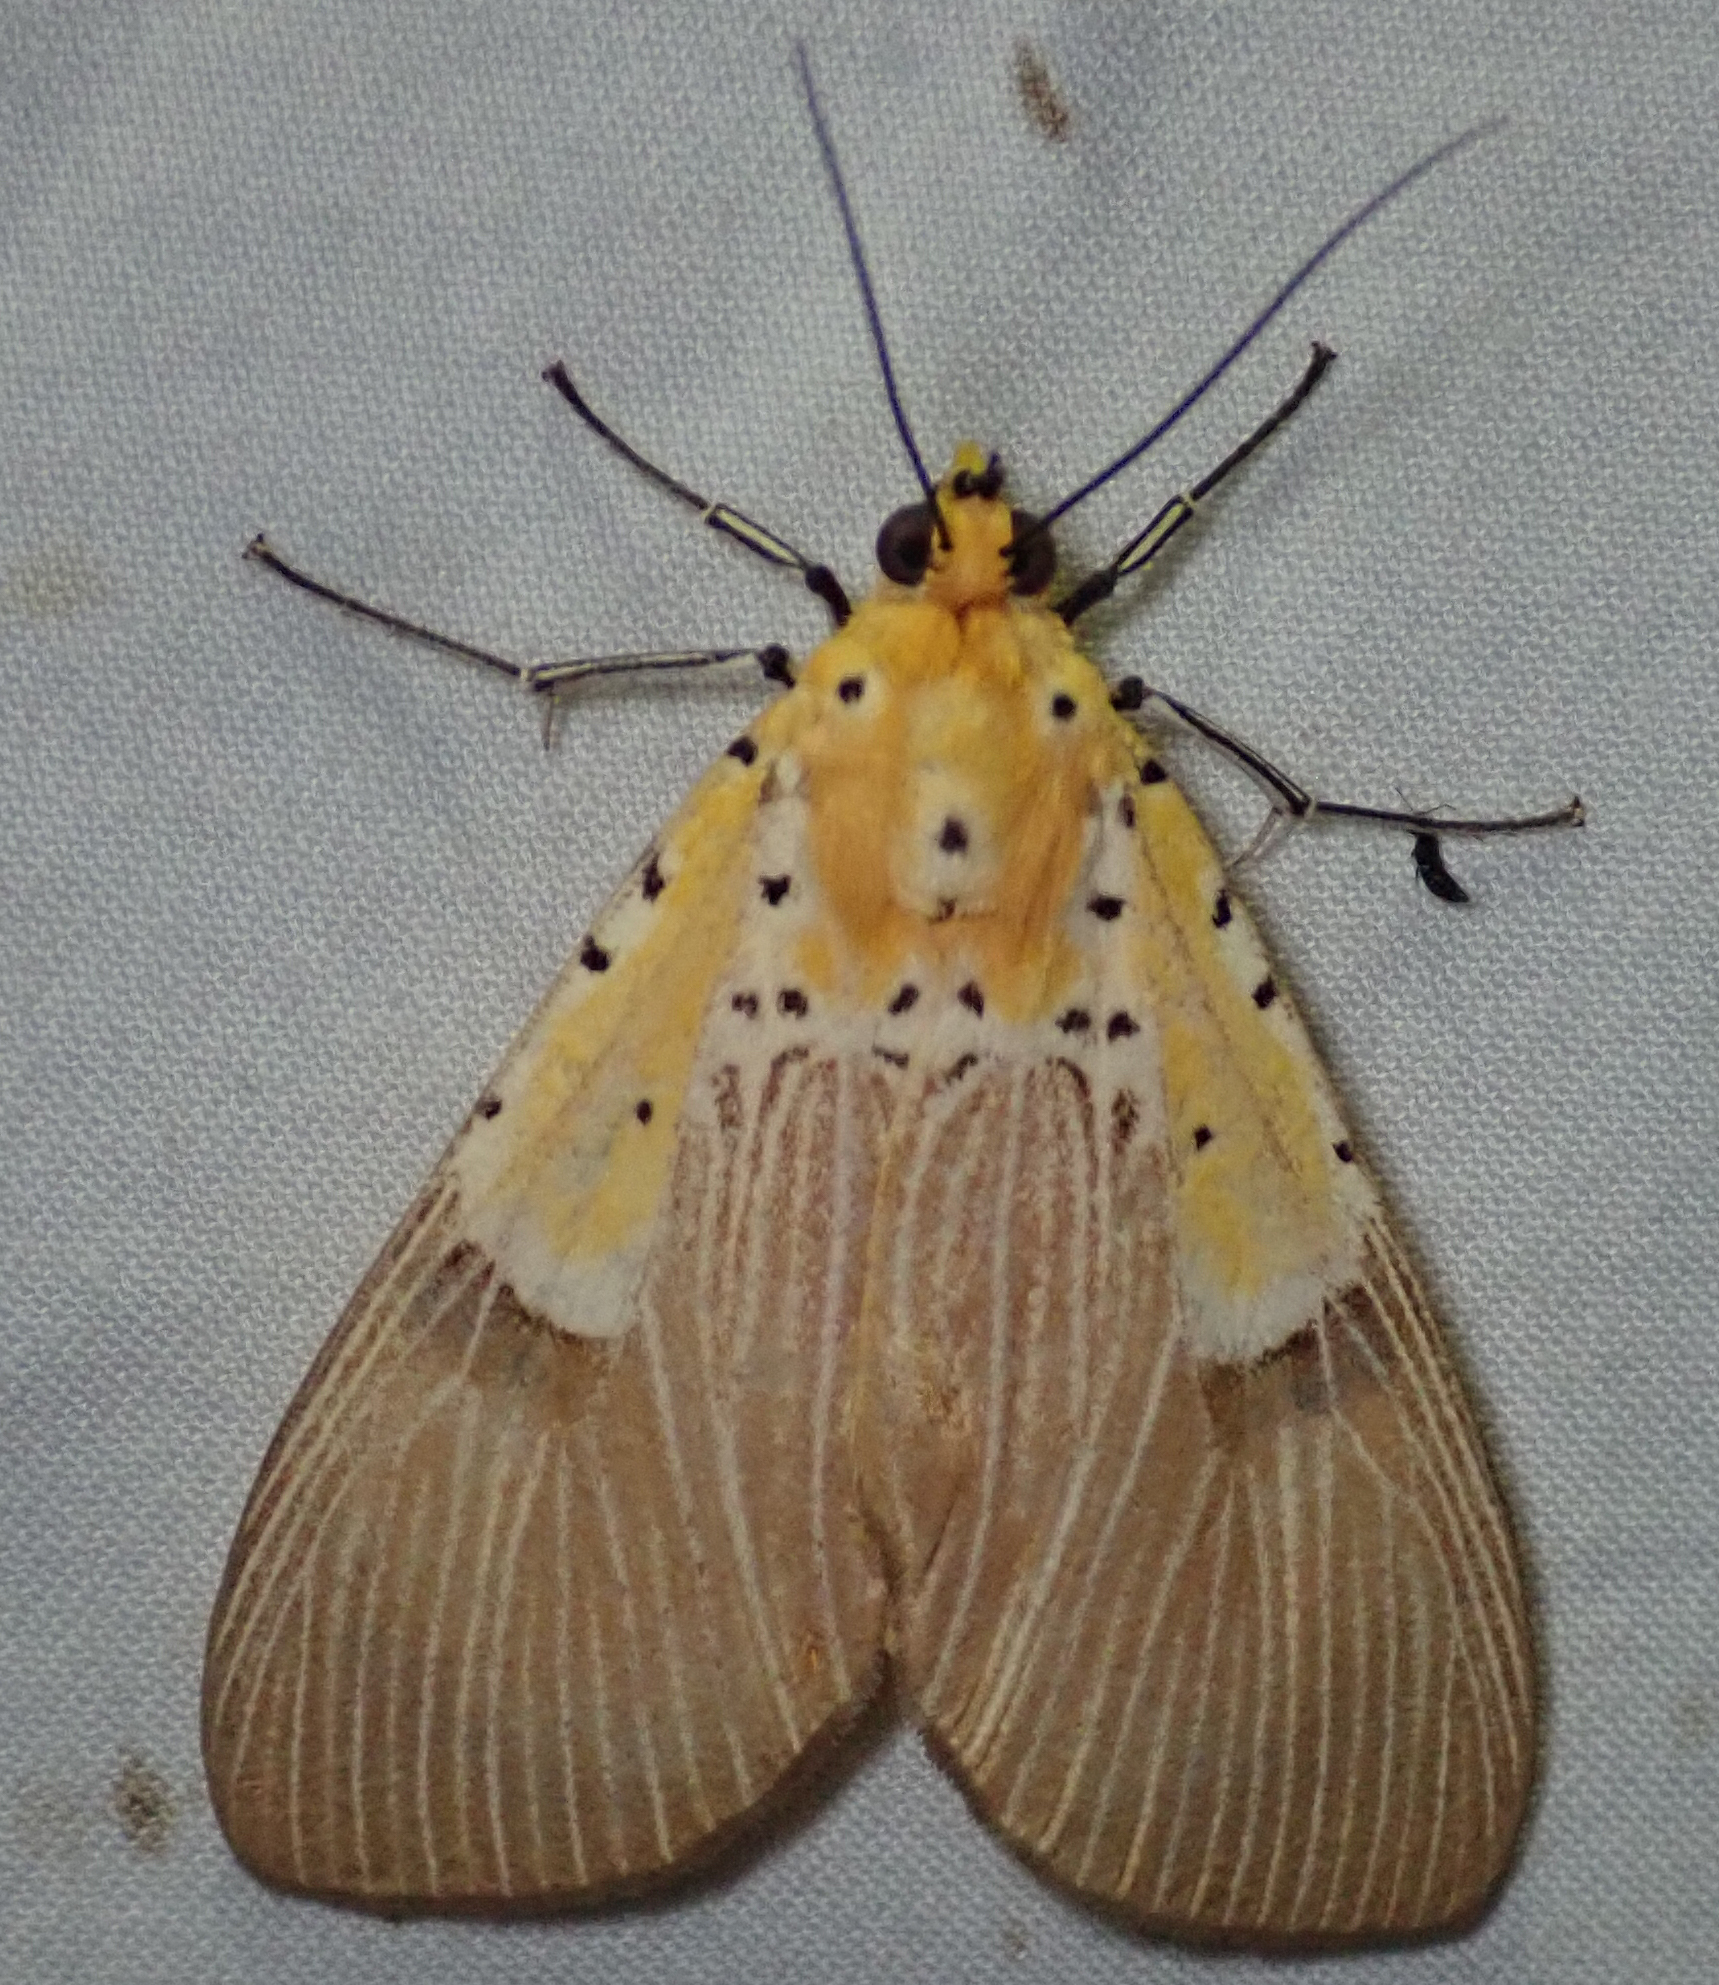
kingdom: Animalia
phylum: Arthropoda
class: Insecta
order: Lepidoptera
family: Erebidae
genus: Asota
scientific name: Asota speciosa
